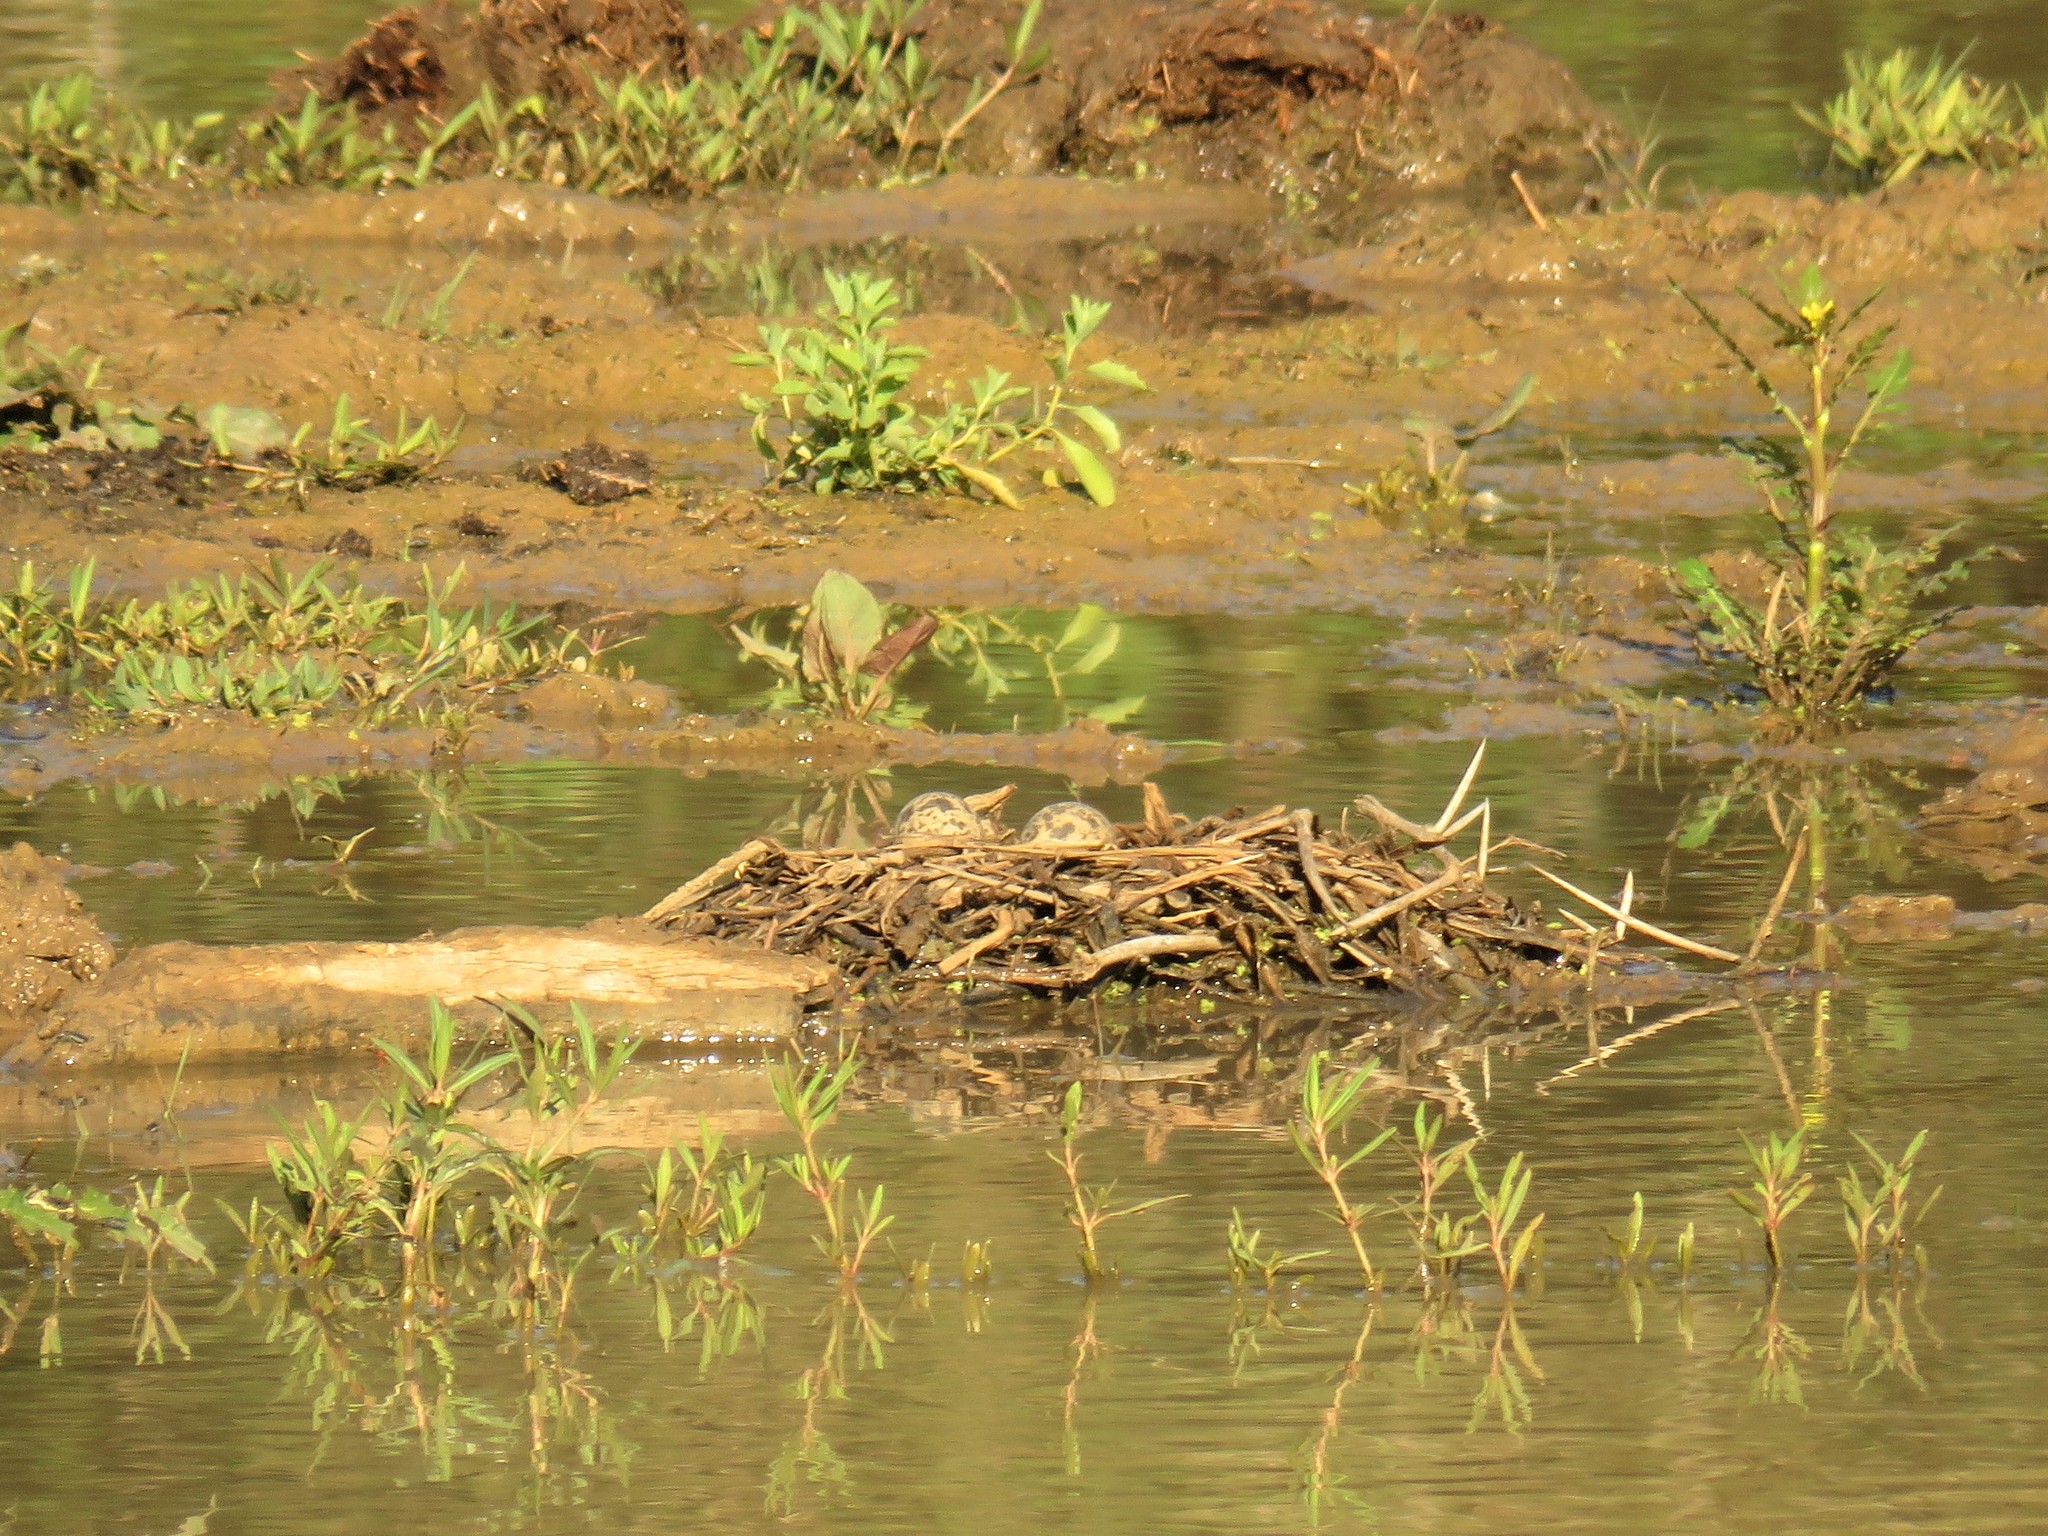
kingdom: Animalia
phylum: Chordata
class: Aves
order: Charadriiformes
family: Charadriidae
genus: Vanellus
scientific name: Vanellus armatus
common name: Blacksmith lapwing
